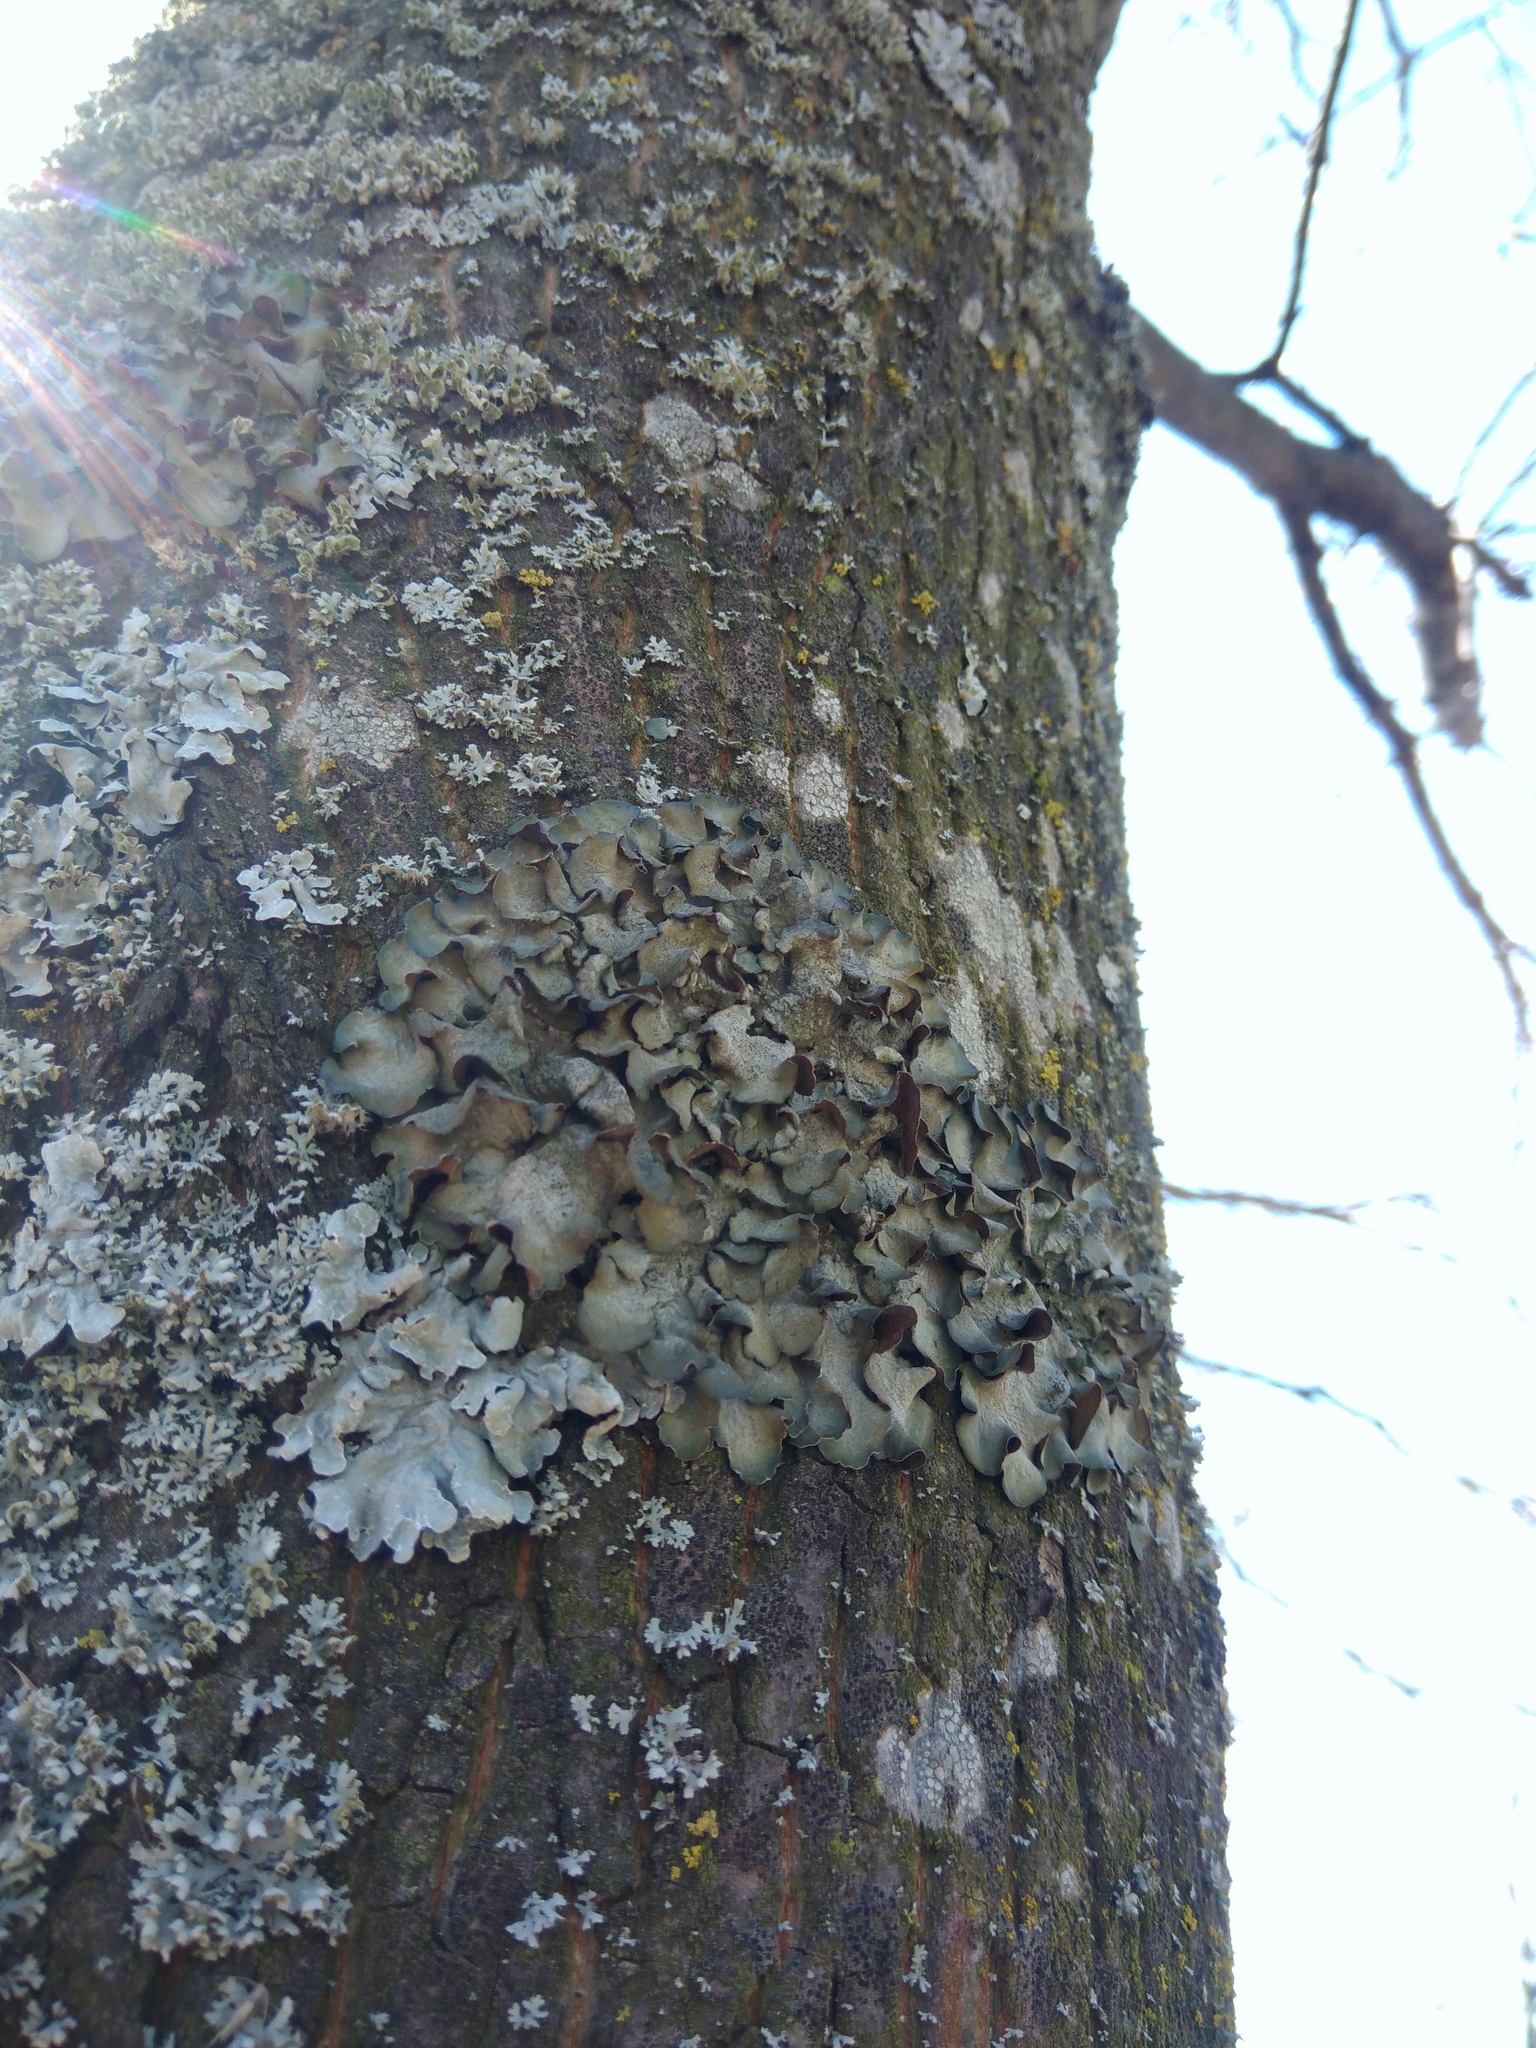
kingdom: Fungi
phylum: Ascomycota
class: Lecanoromycetes
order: Lecanorales
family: Parmeliaceae
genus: Pleurosticta
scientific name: Pleurosticta acetabulum
